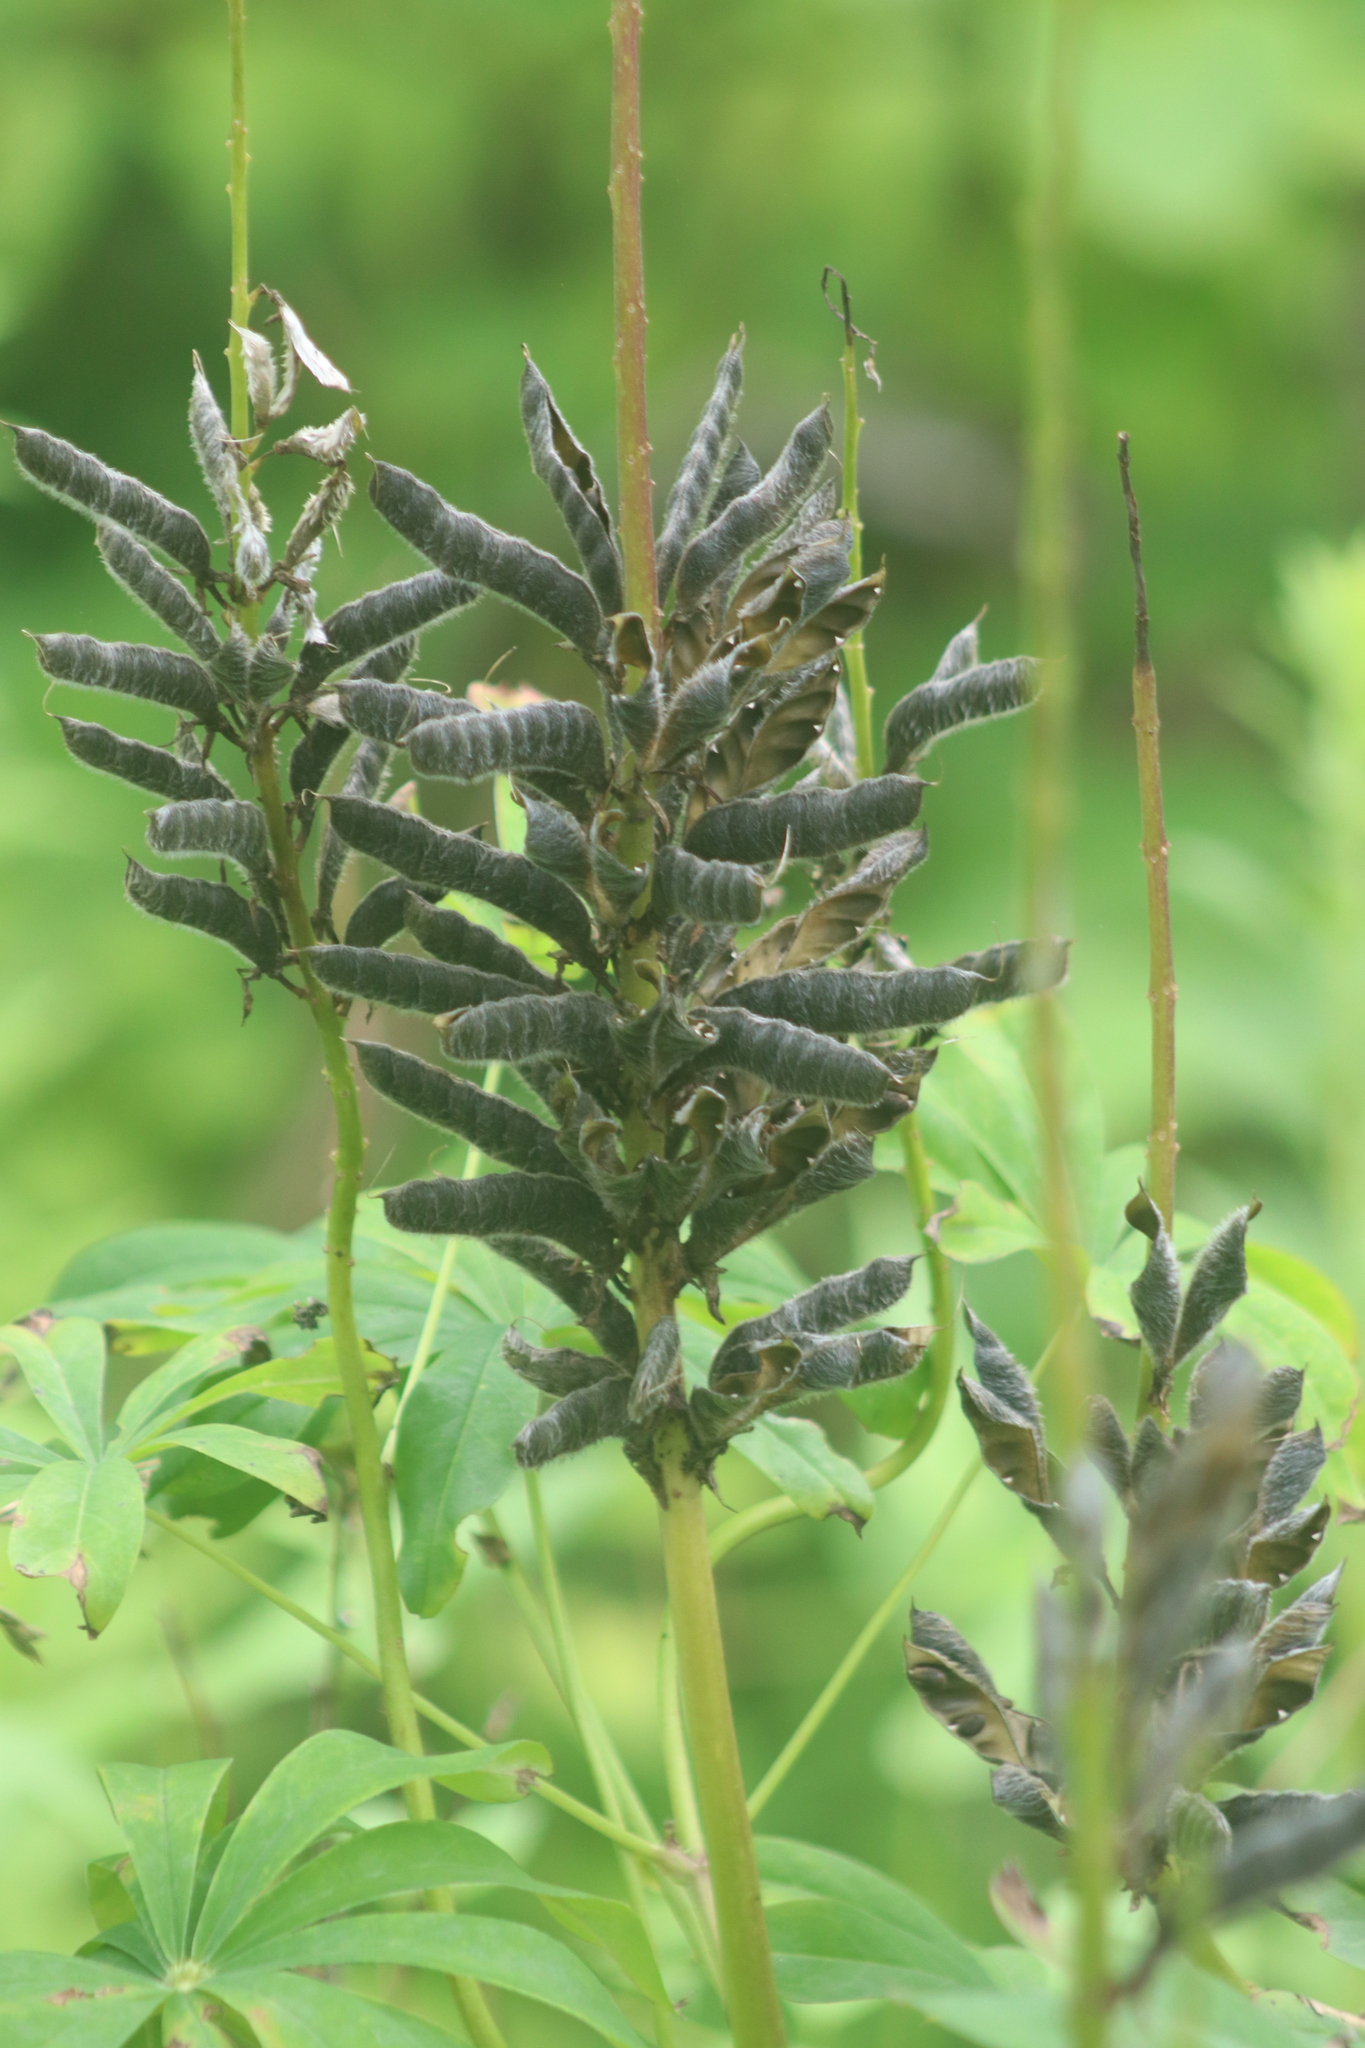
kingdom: Plantae
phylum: Tracheophyta
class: Magnoliopsida
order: Fabales
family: Fabaceae
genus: Lupinus
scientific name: Lupinus polyphyllus
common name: Garden lupin
